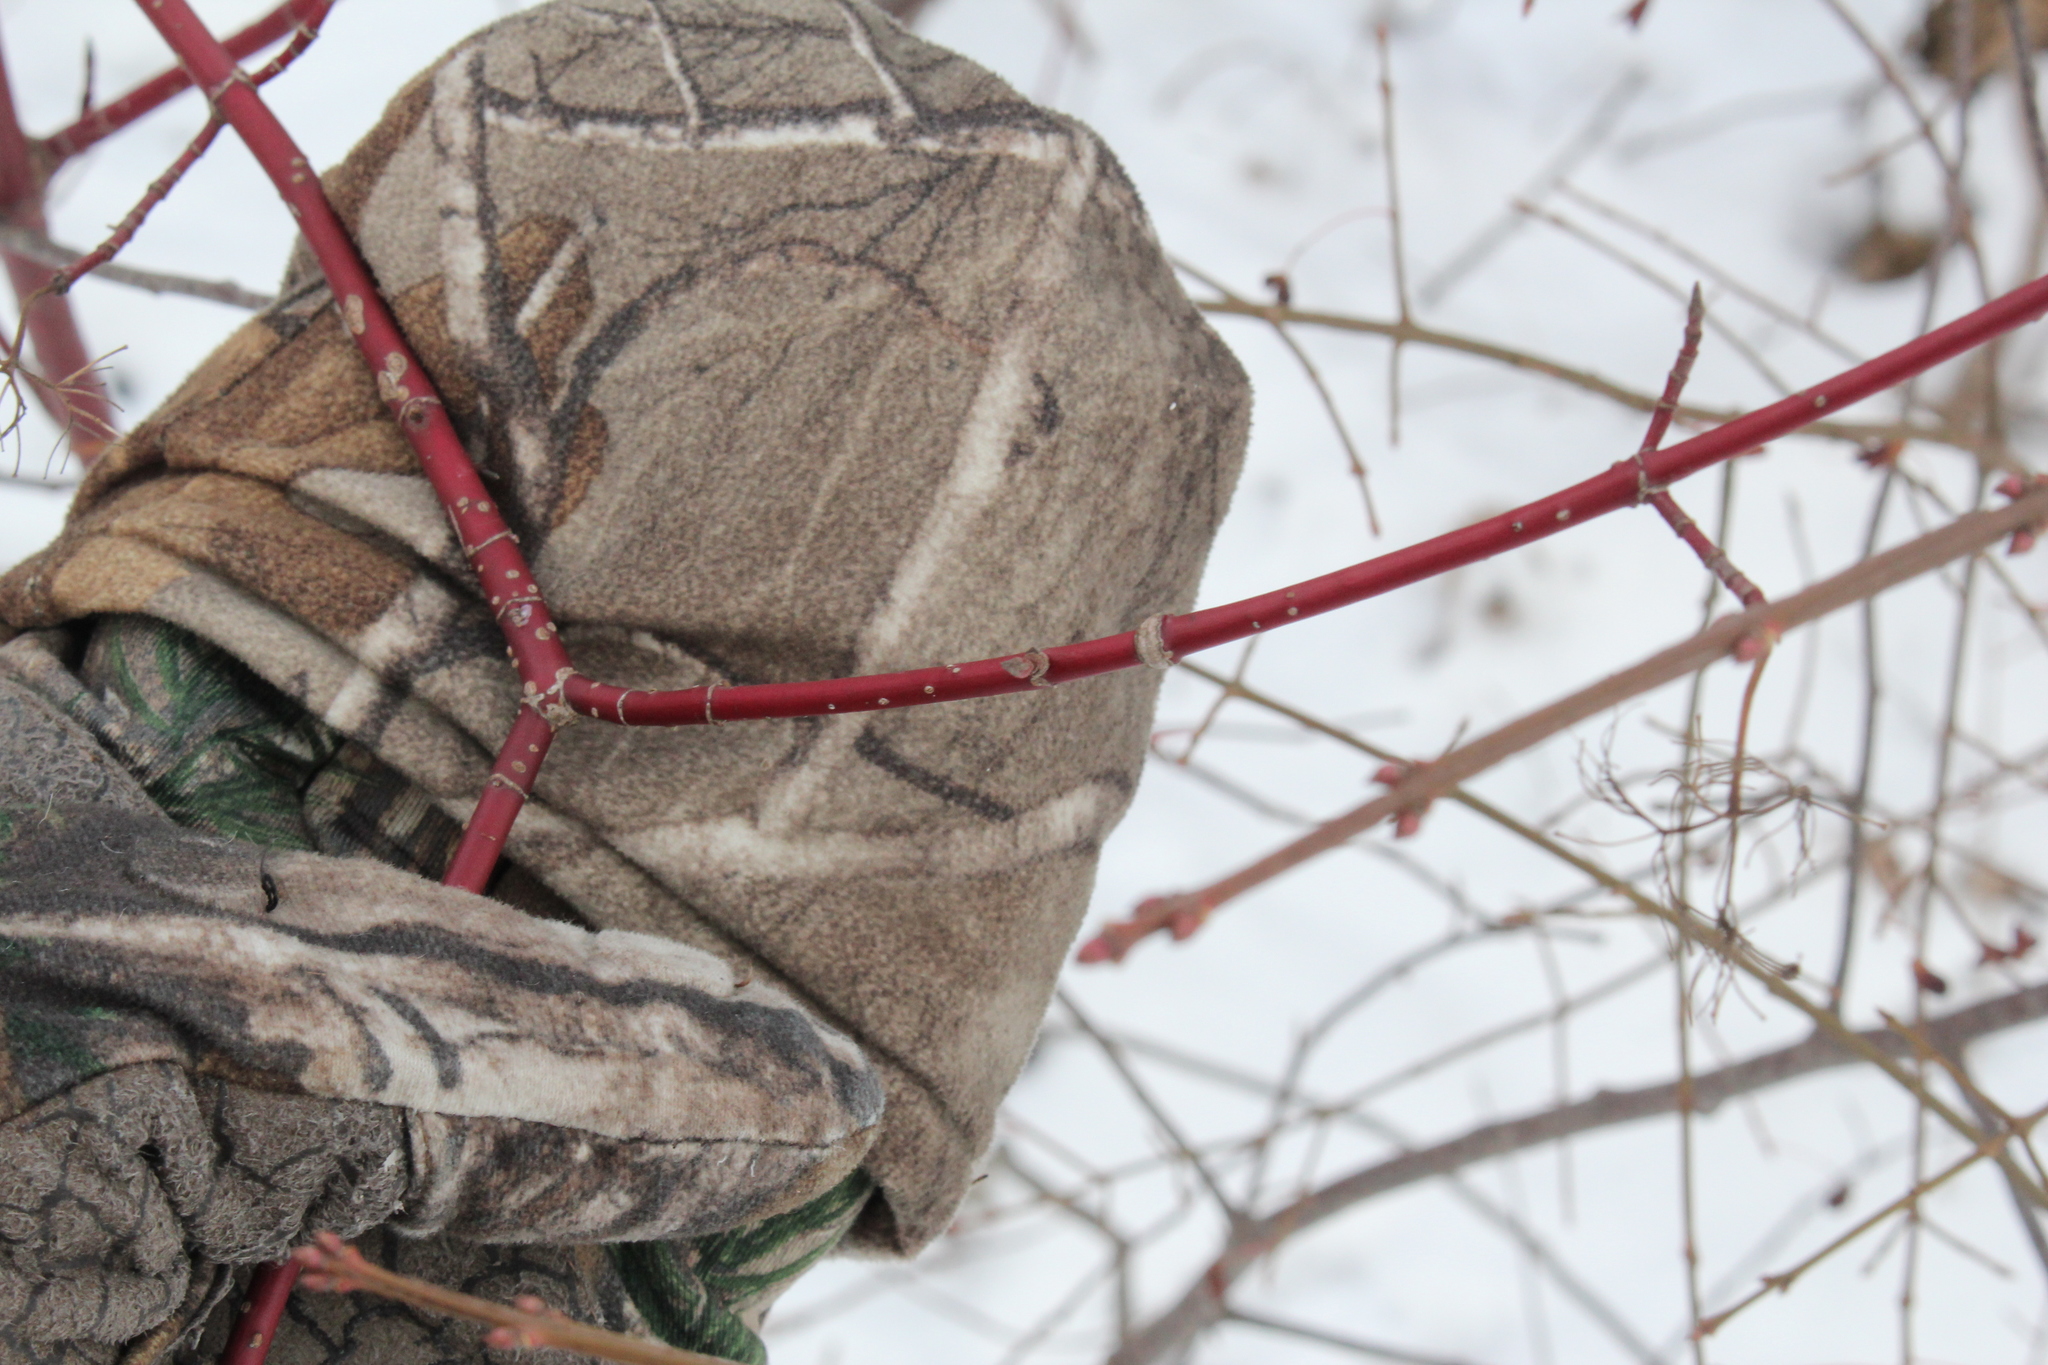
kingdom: Plantae
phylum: Tracheophyta
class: Magnoliopsida
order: Cornales
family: Cornaceae
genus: Cornus
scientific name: Cornus sericea
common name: Red-osier dogwood
